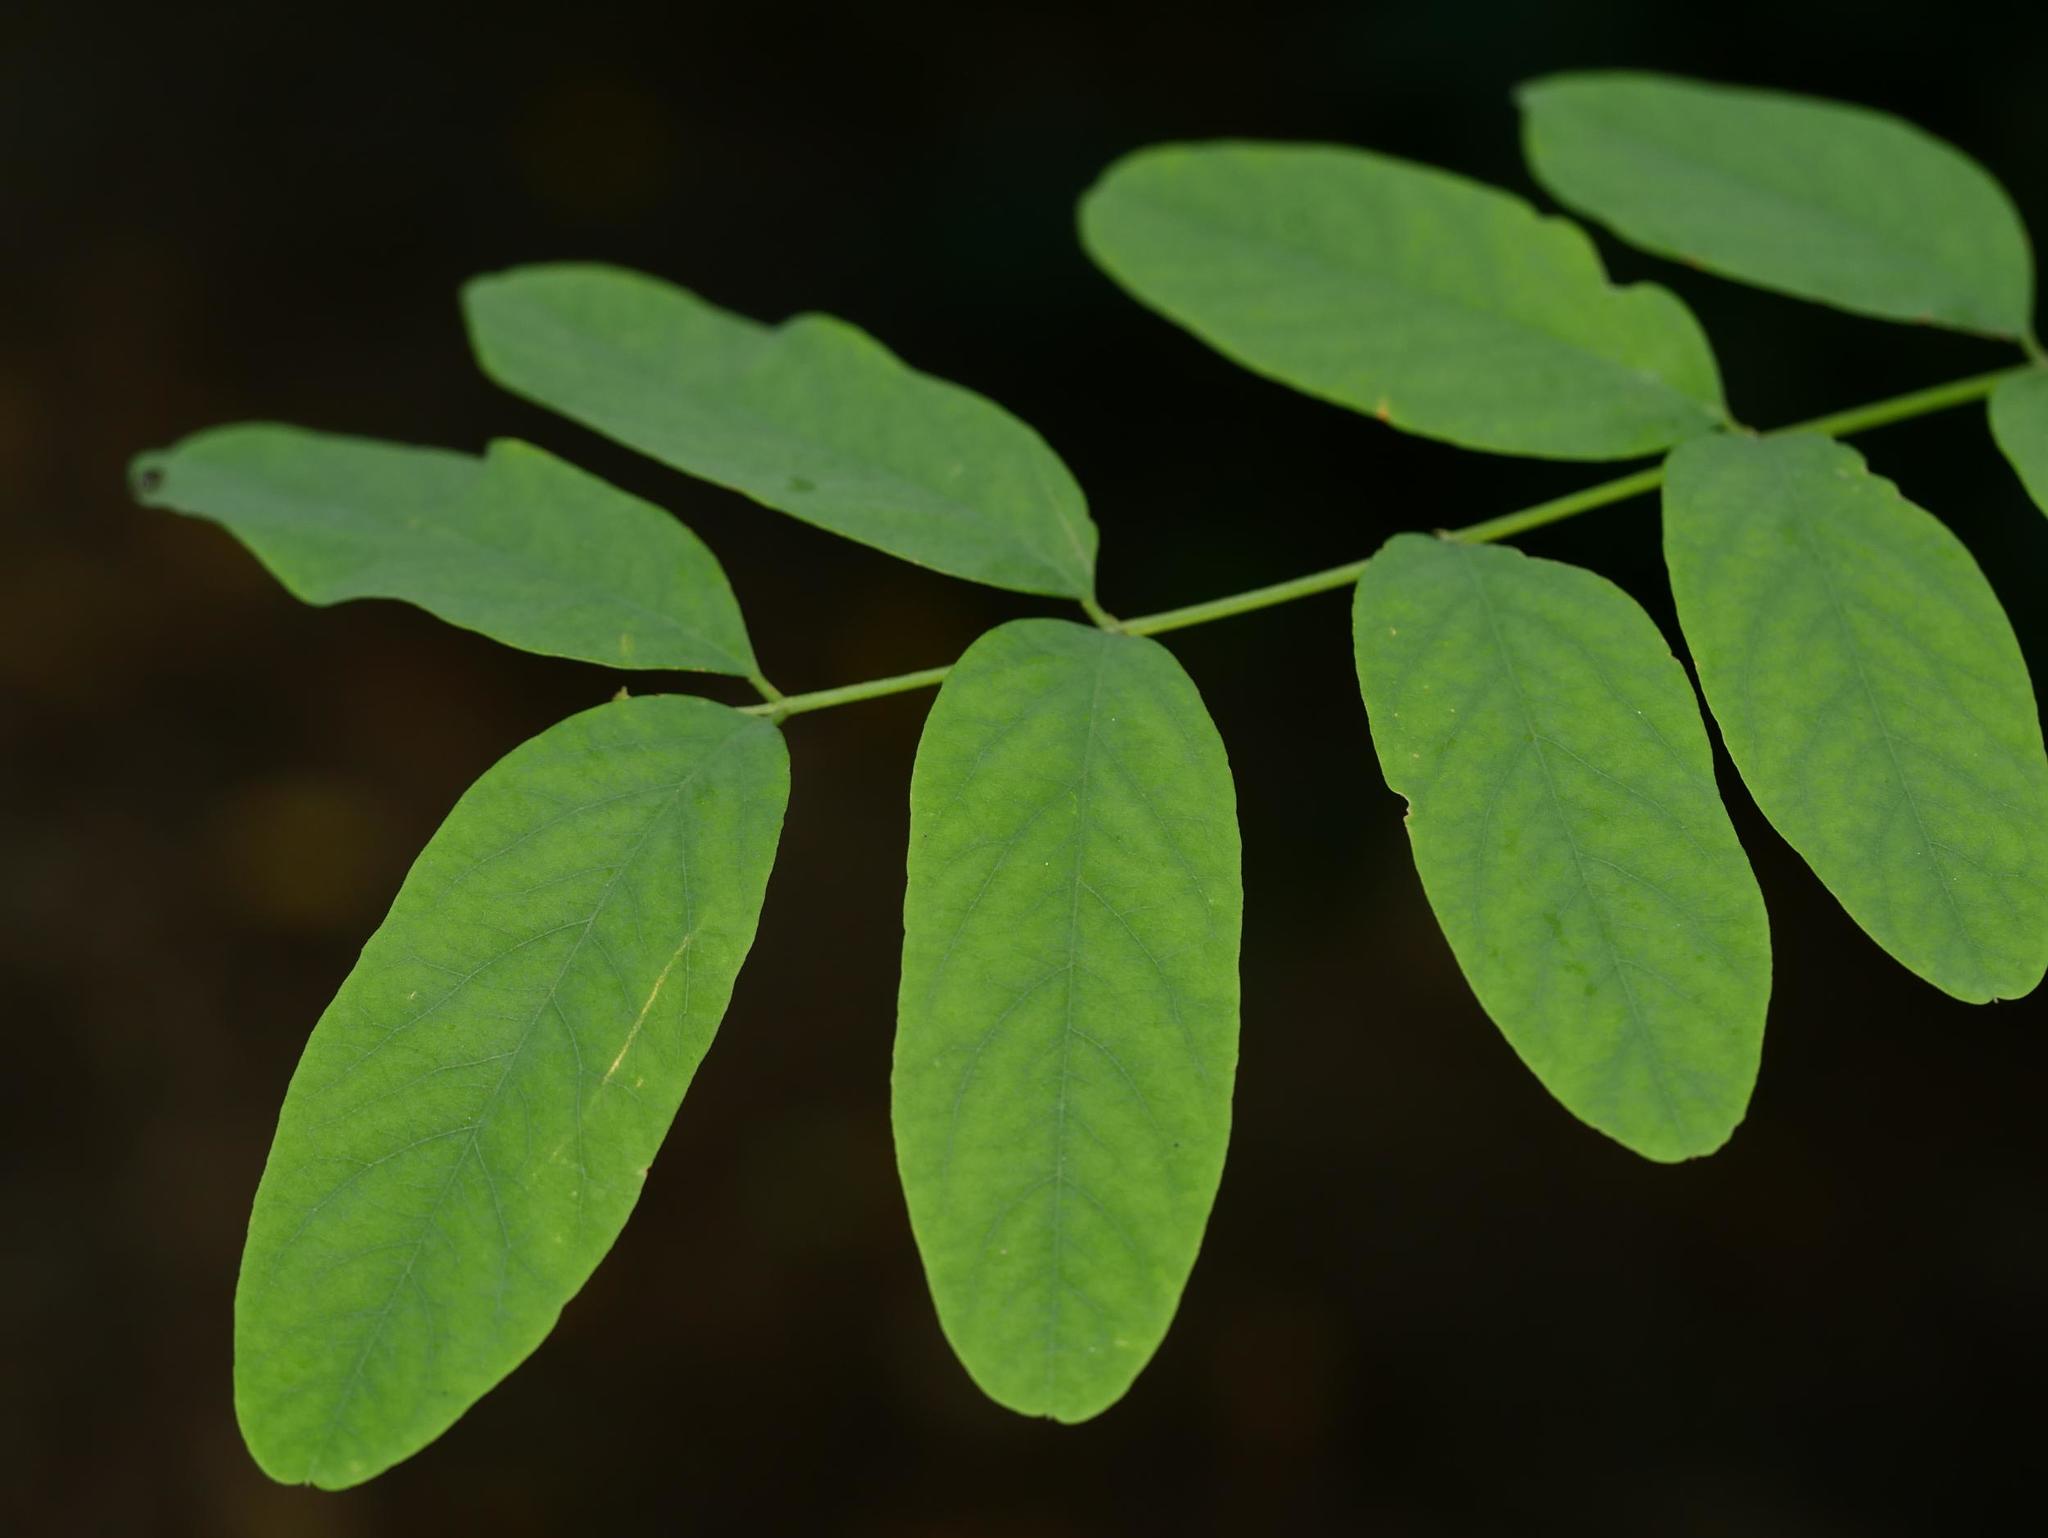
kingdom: Plantae
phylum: Tracheophyta
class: Magnoliopsida
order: Fabales
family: Fabaceae
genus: Robinia
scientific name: Robinia pseudoacacia
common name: Black locust
